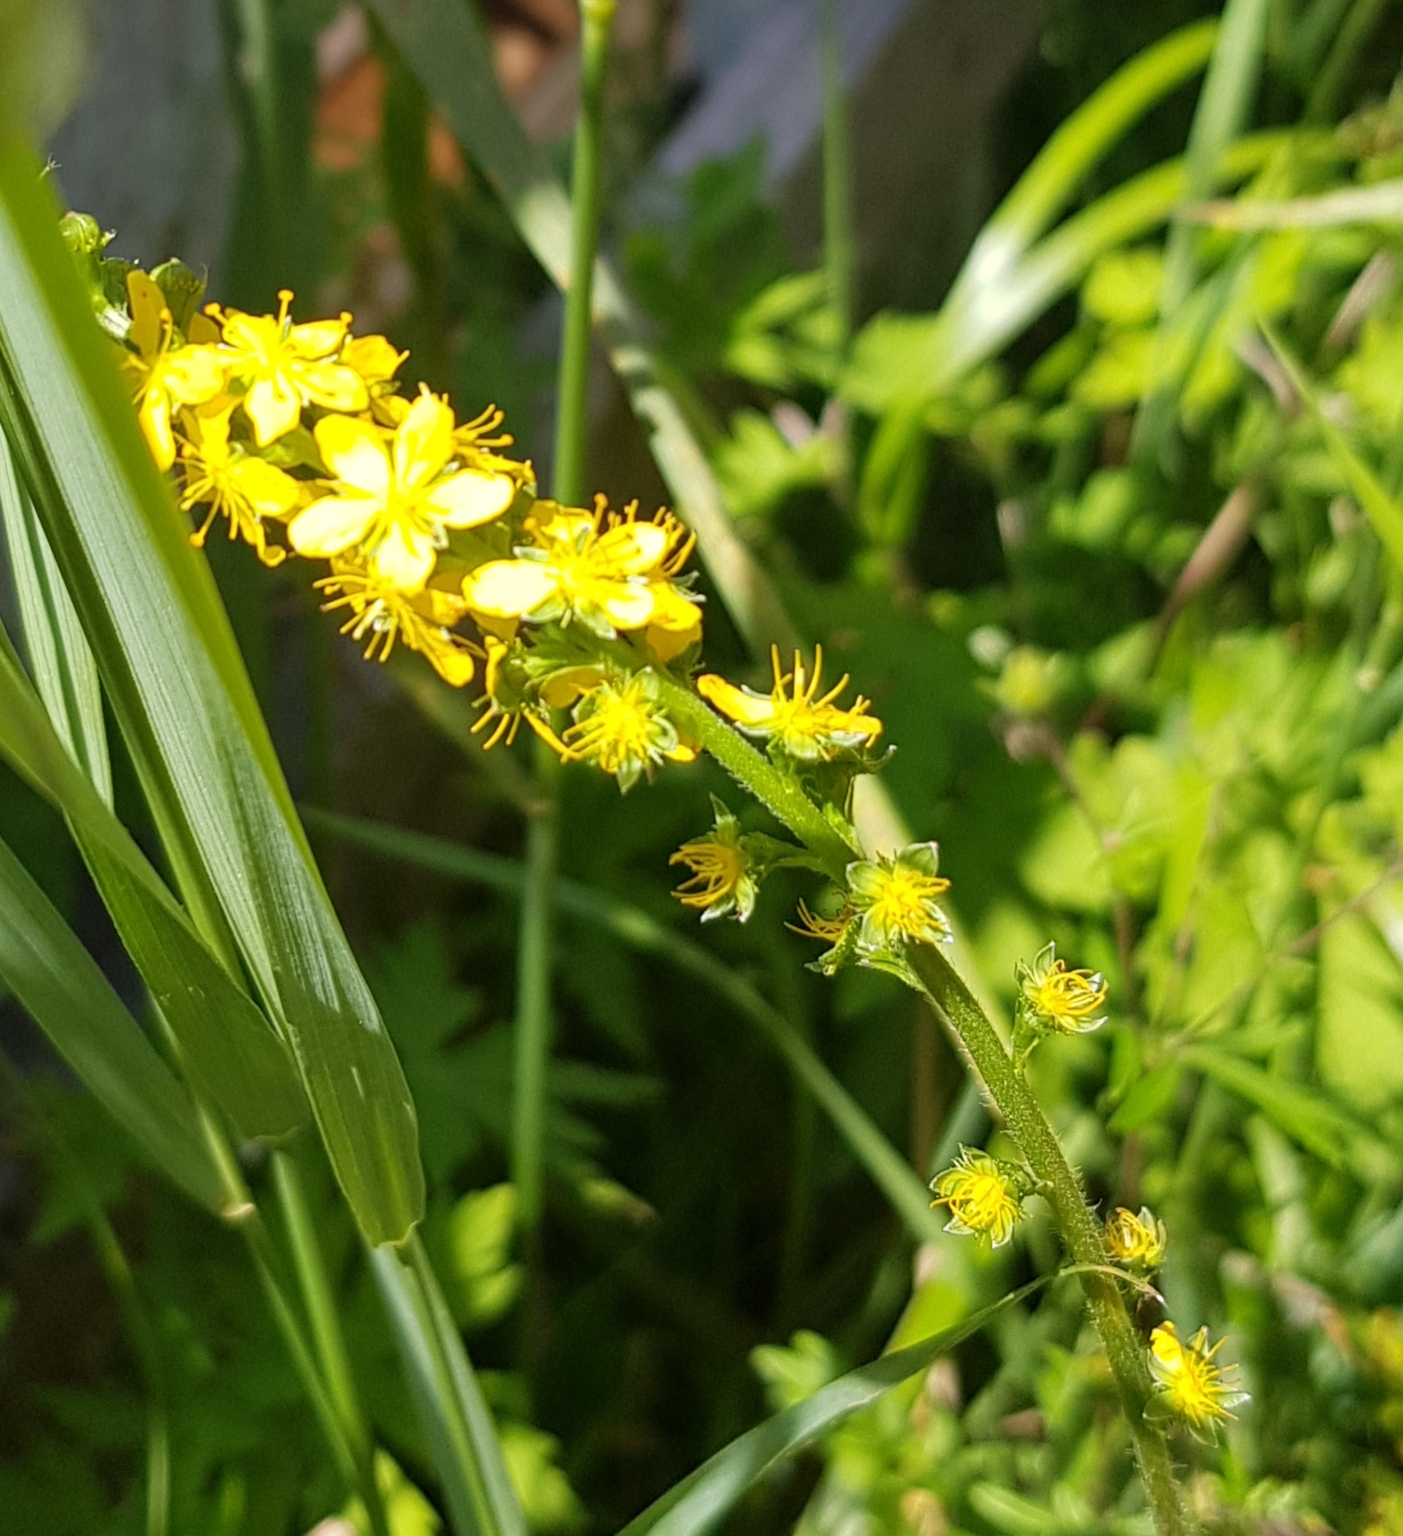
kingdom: Plantae
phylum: Tracheophyta
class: Magnoliopsida
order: Rosales
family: Rosaceae
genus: Agrimonia
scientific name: Agrimonia pilosa
